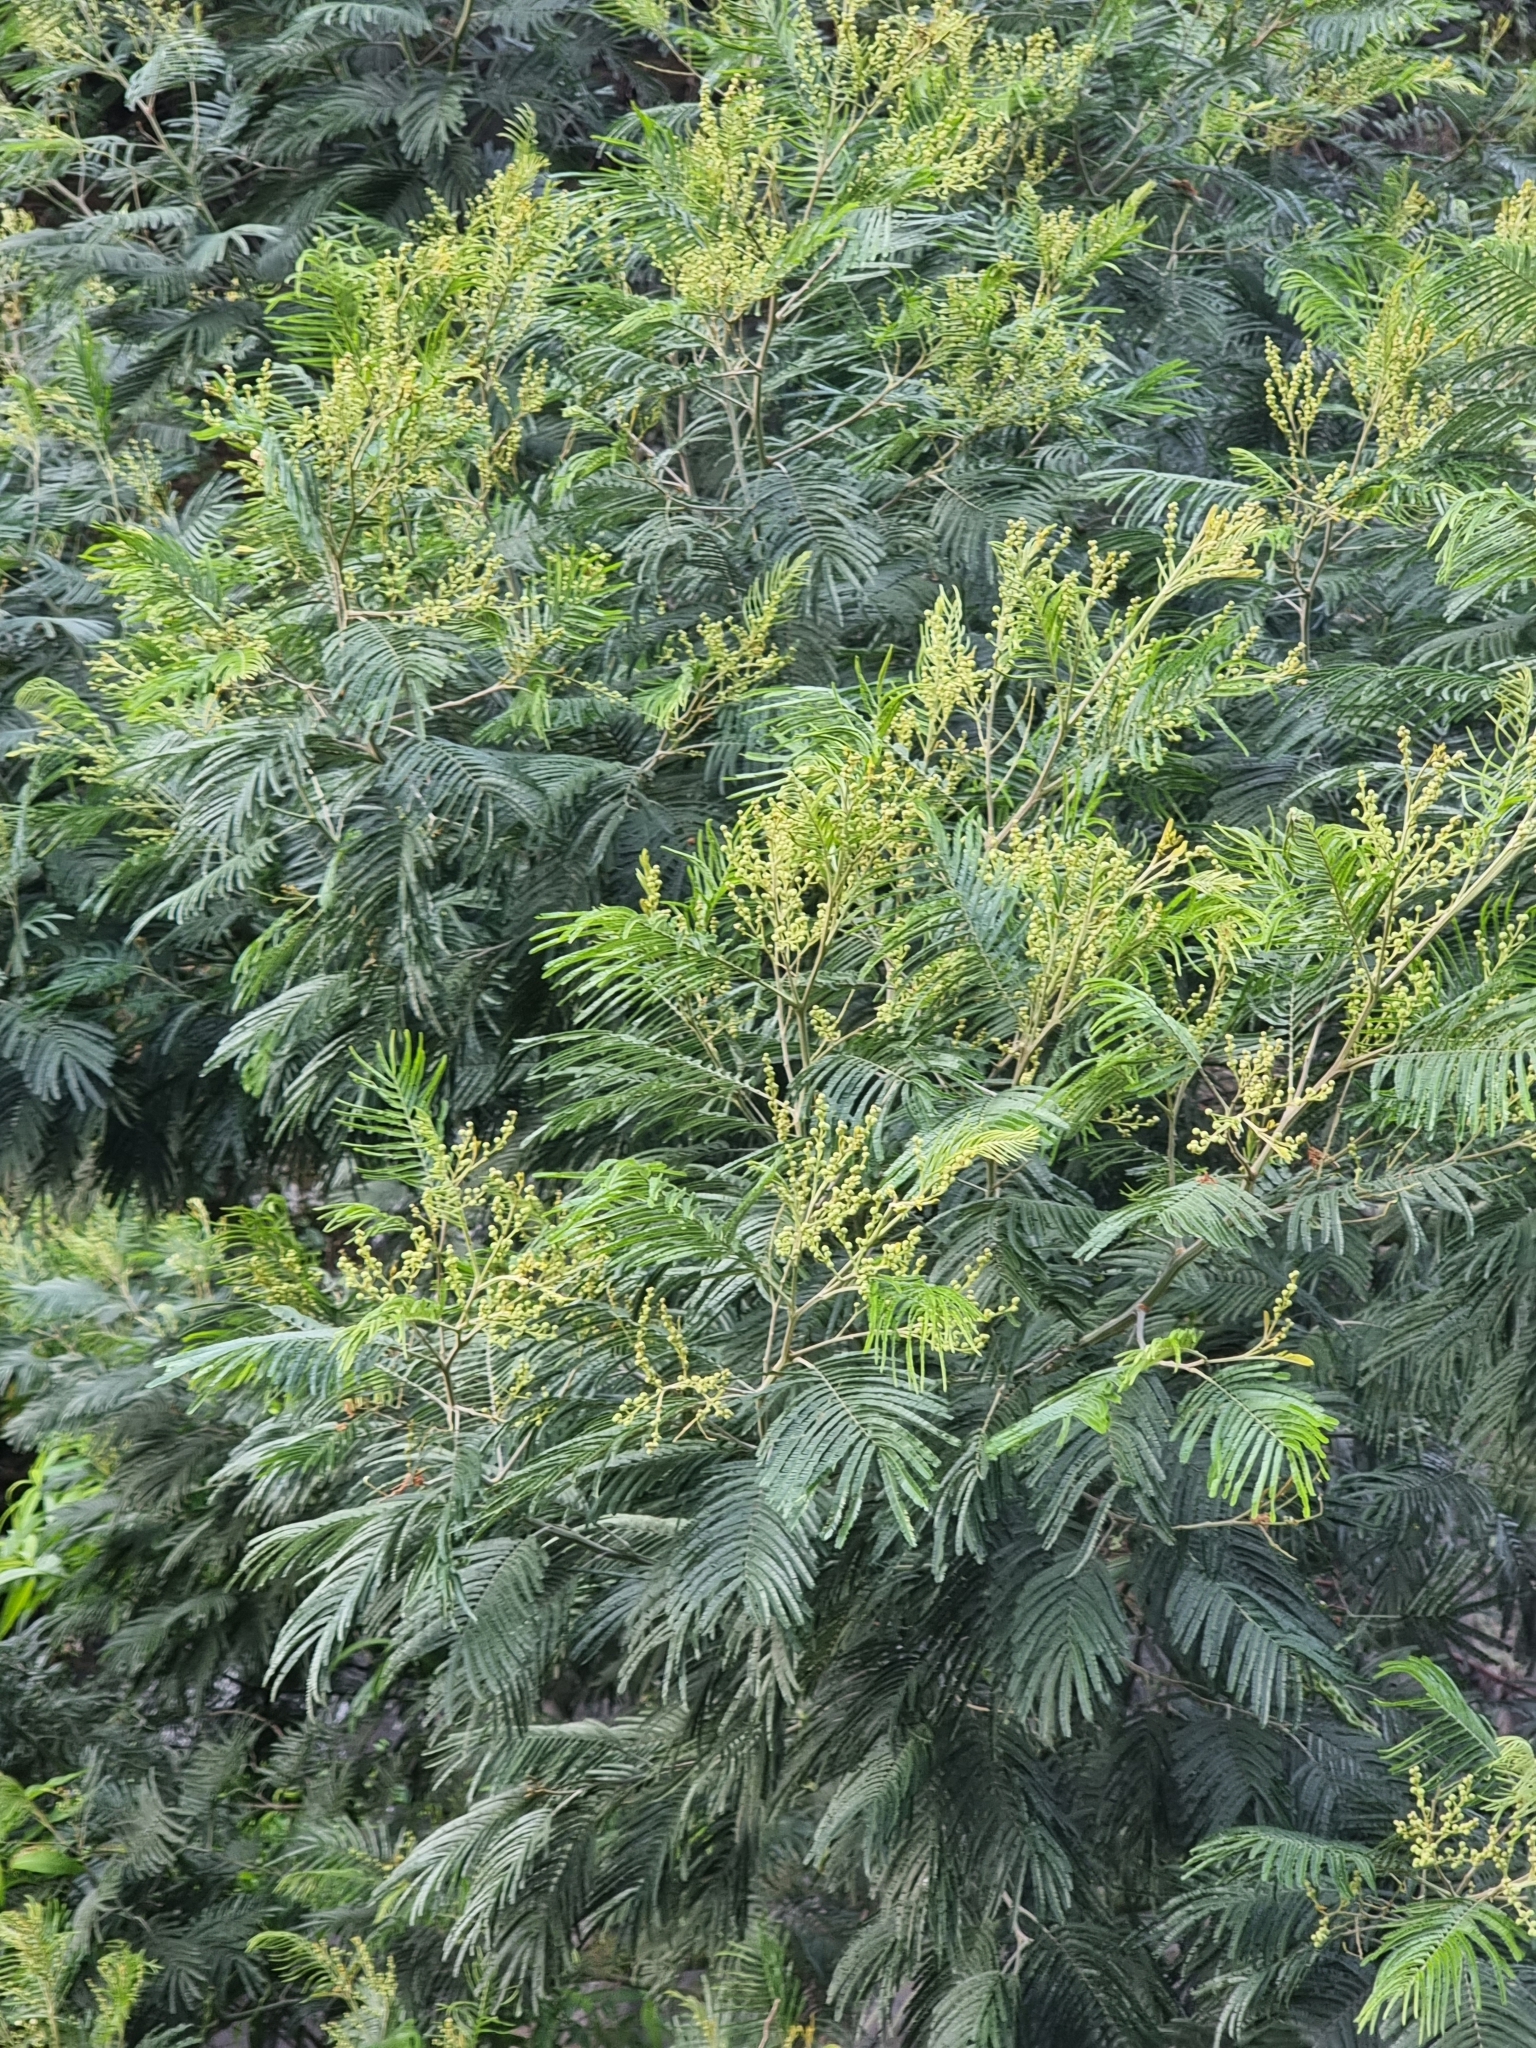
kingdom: Plantae
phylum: Tracheophyta
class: Magnoliopsida
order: Fabales
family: Fabaceae
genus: Acacia
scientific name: Acacia mearnsii
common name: Black wattle
